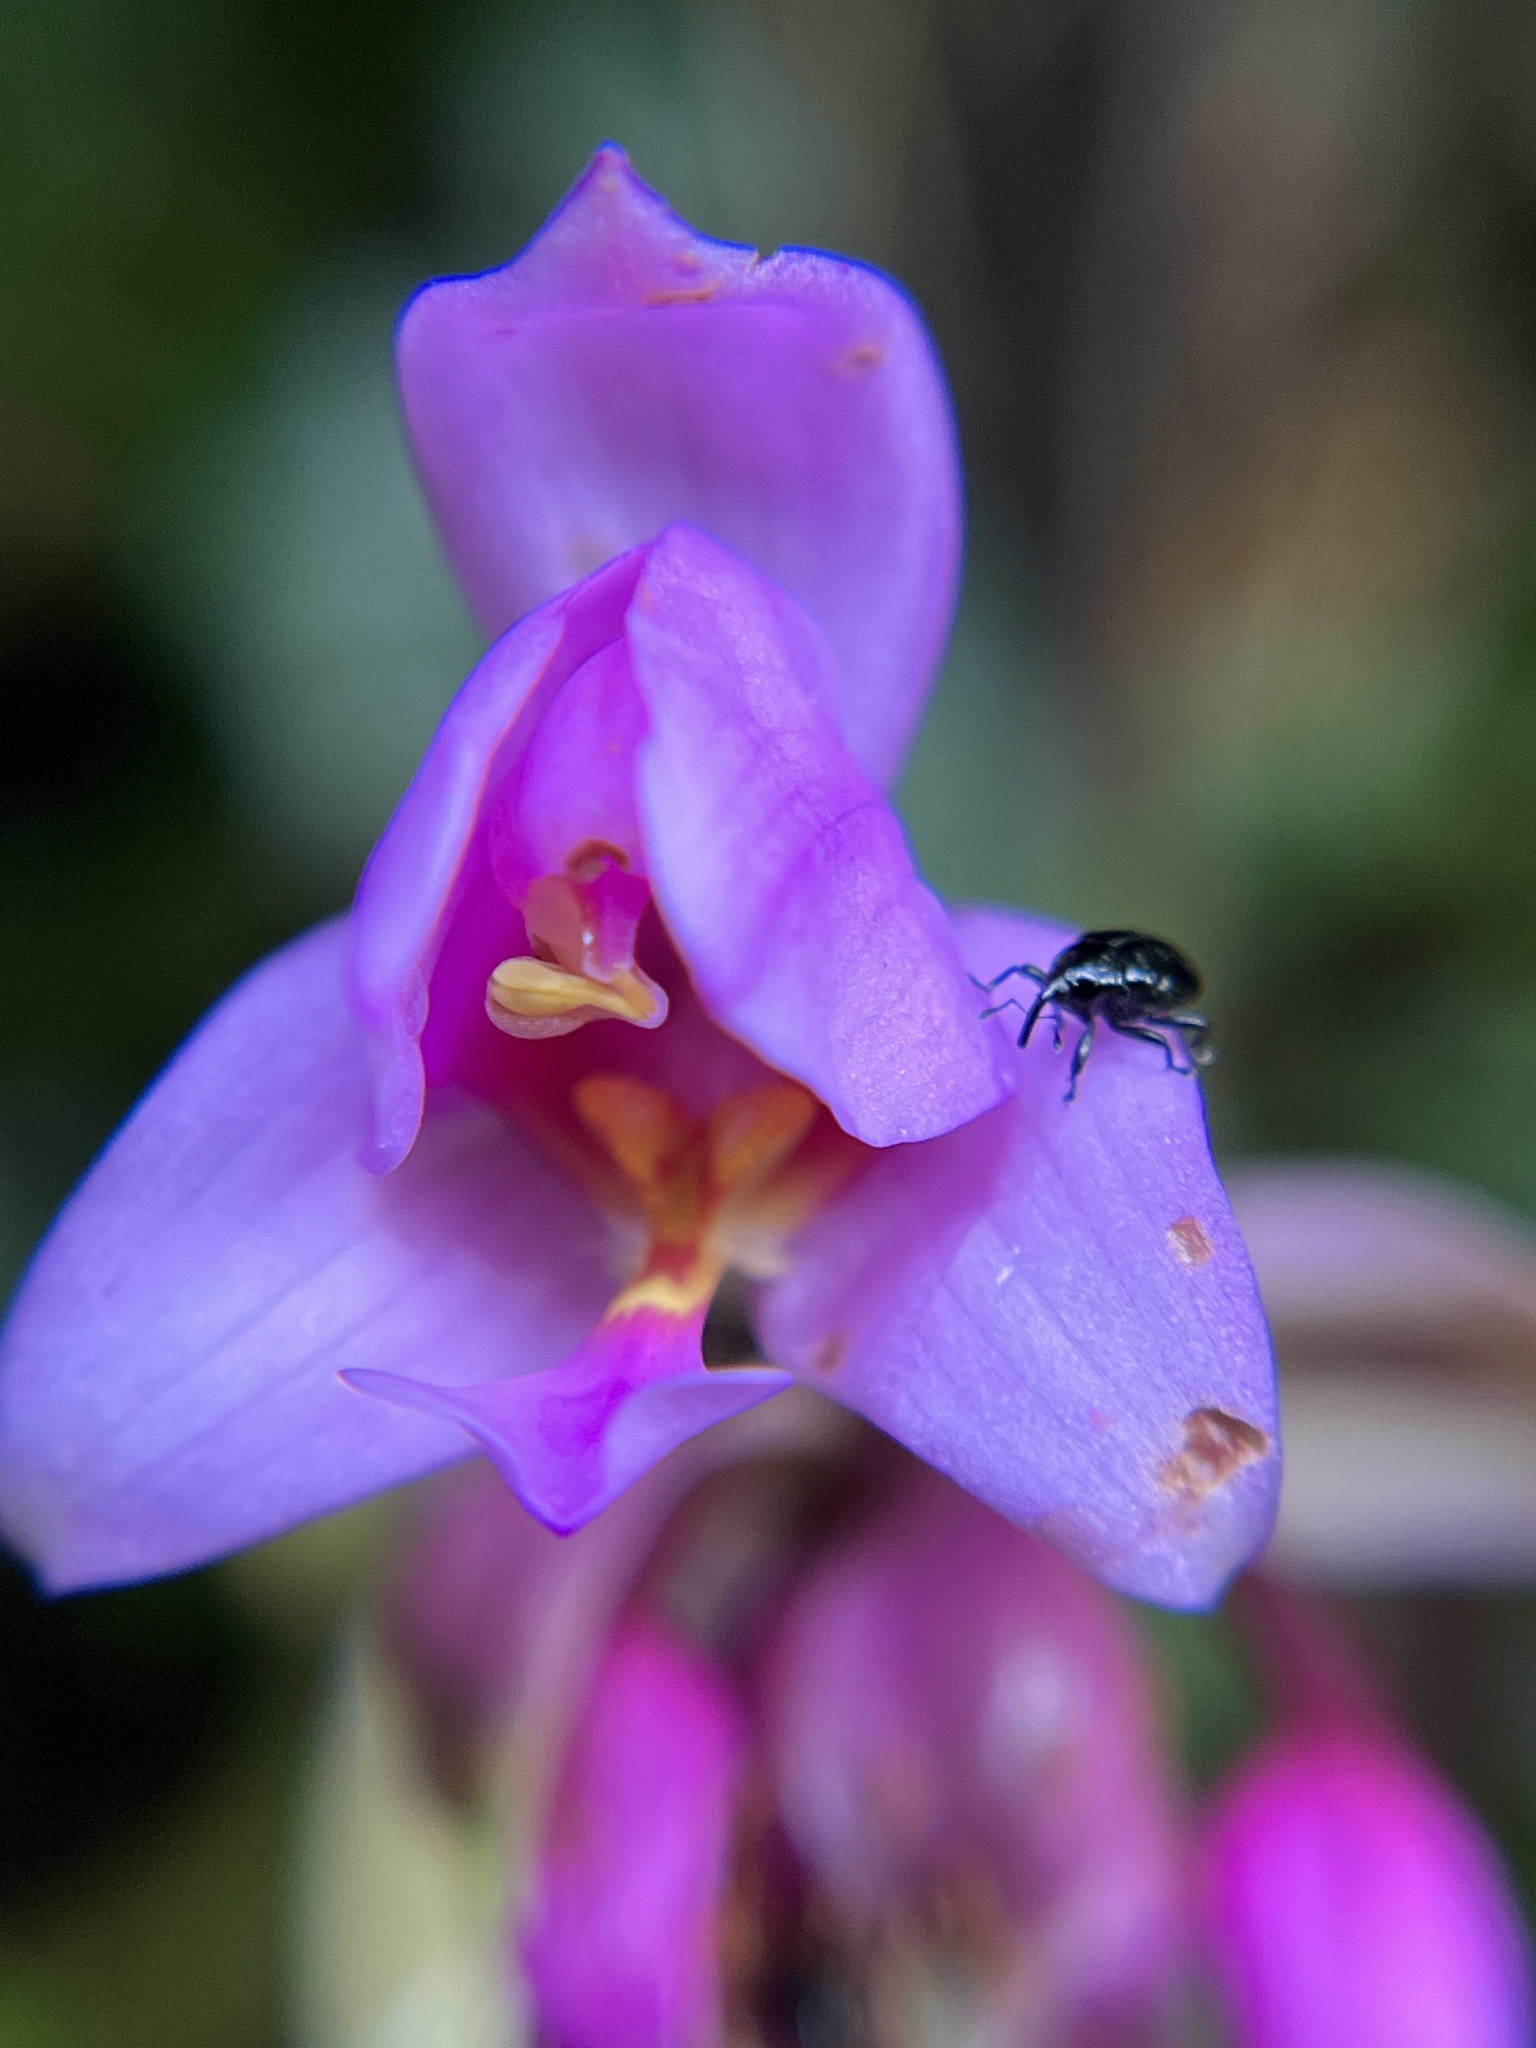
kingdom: Plantae
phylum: Tracheophyta
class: Liliopsida
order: Asparagales
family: Orchidaceae
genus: Spathoglottis
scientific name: Spathoglottis plicata
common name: Philippine ground orchid
